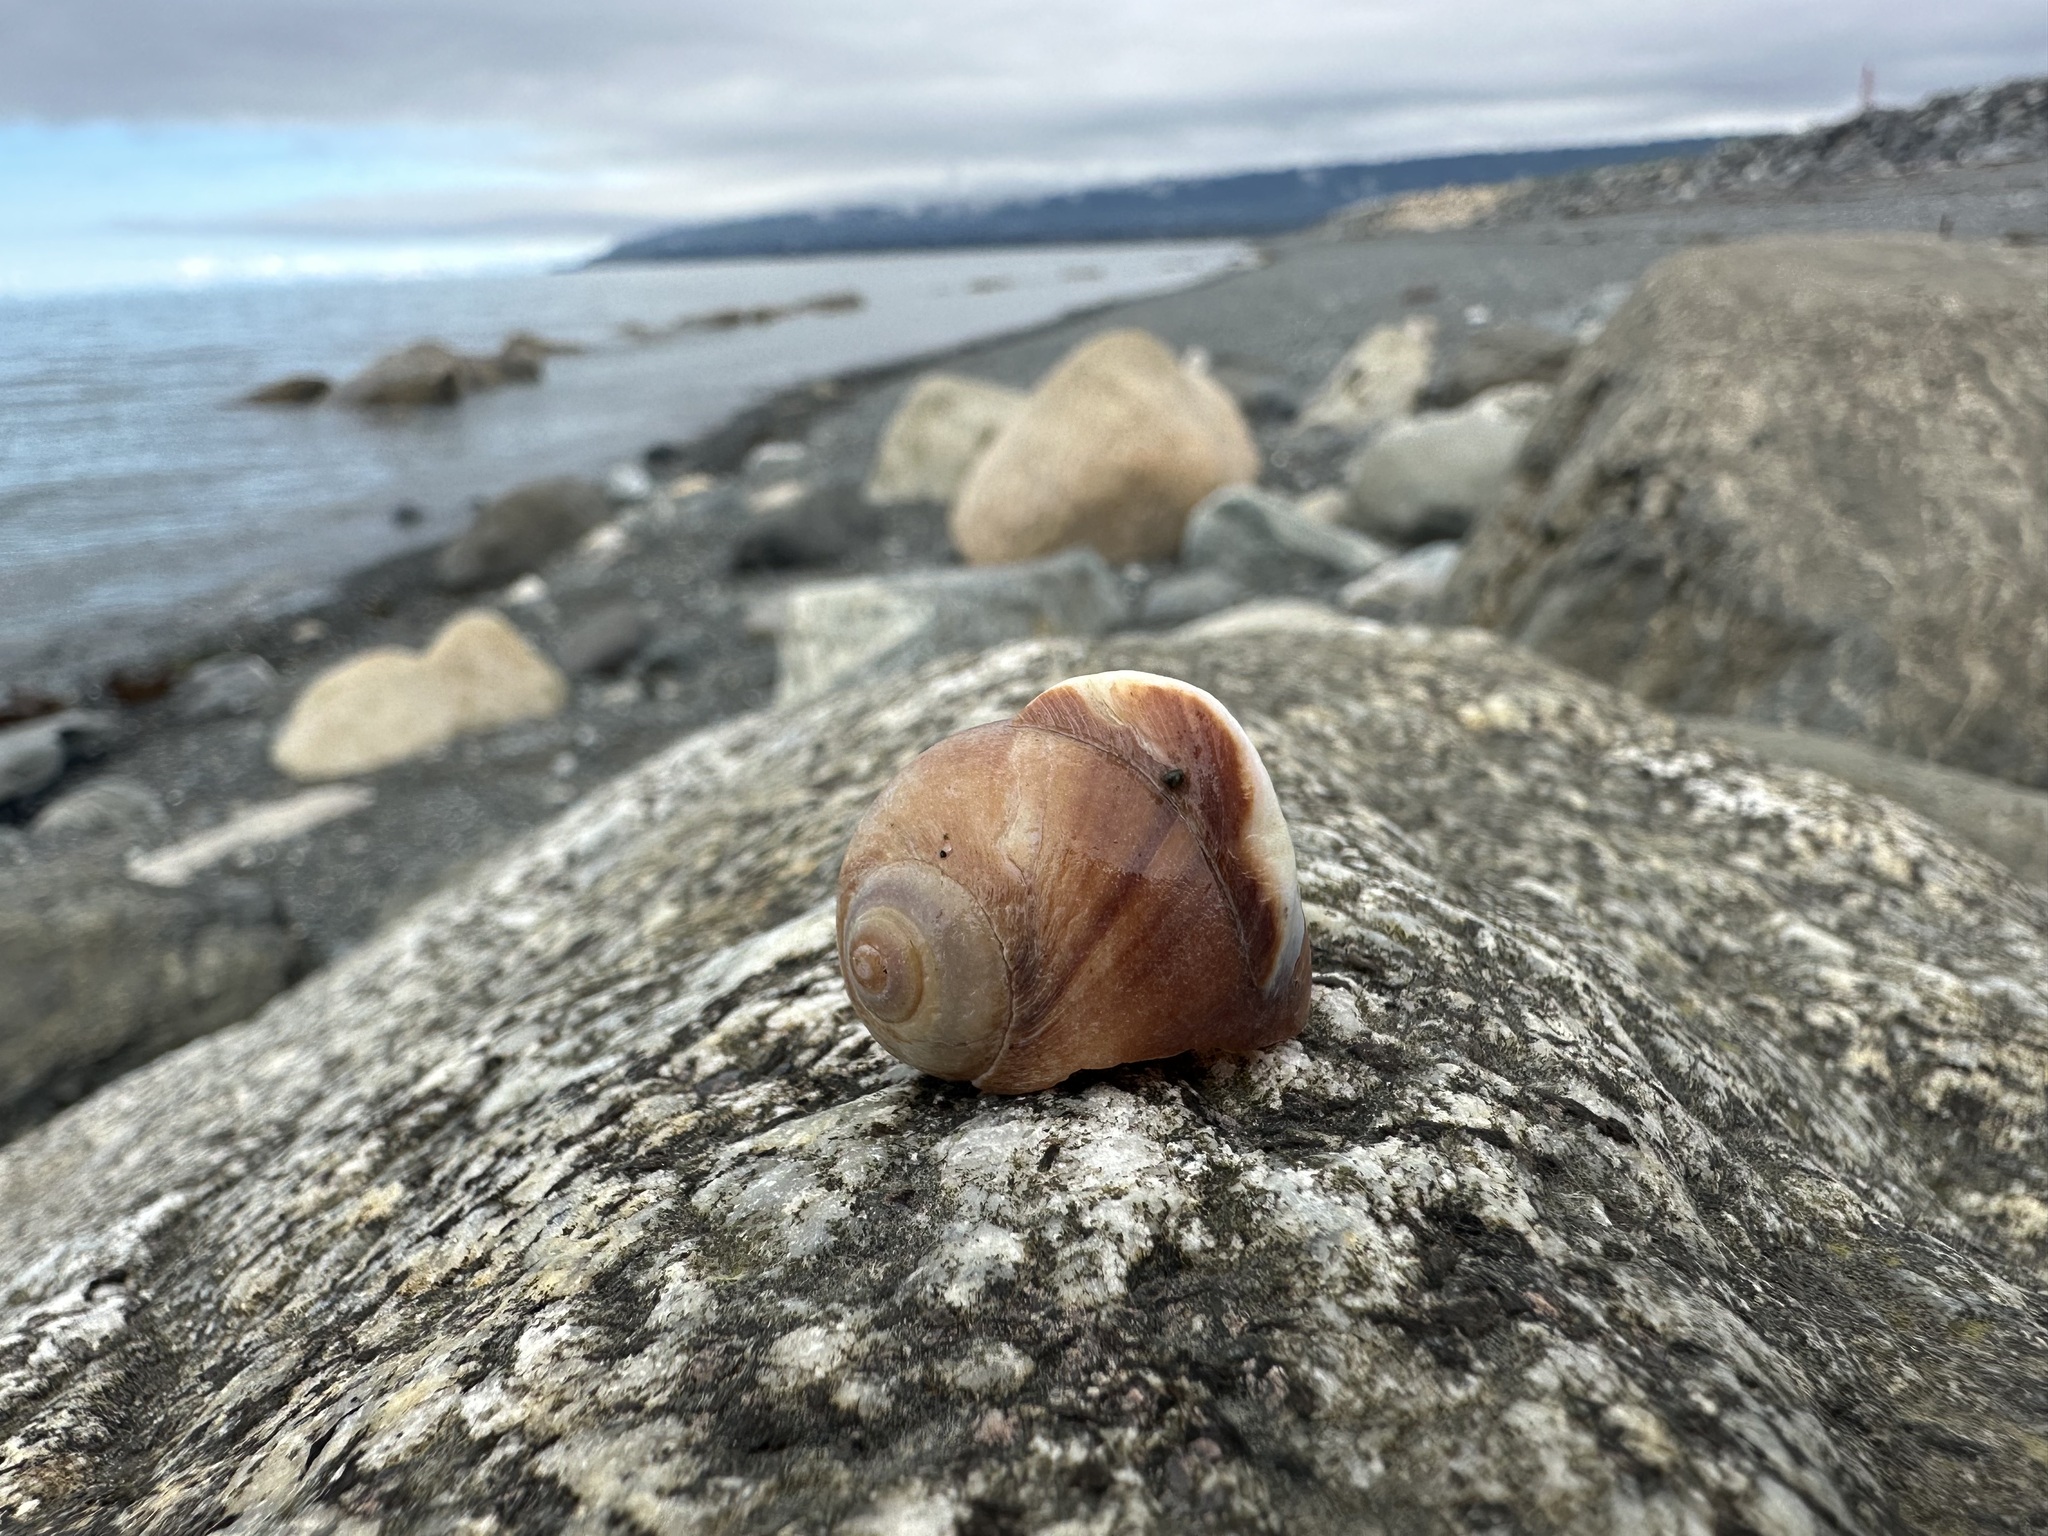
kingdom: Animalia
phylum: Mollusca
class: Gastropoda
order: Littorinimorpha
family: Naticidae
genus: Cryptonatica
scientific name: Cryptonatica aleutica
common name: Aleutian moon snail
